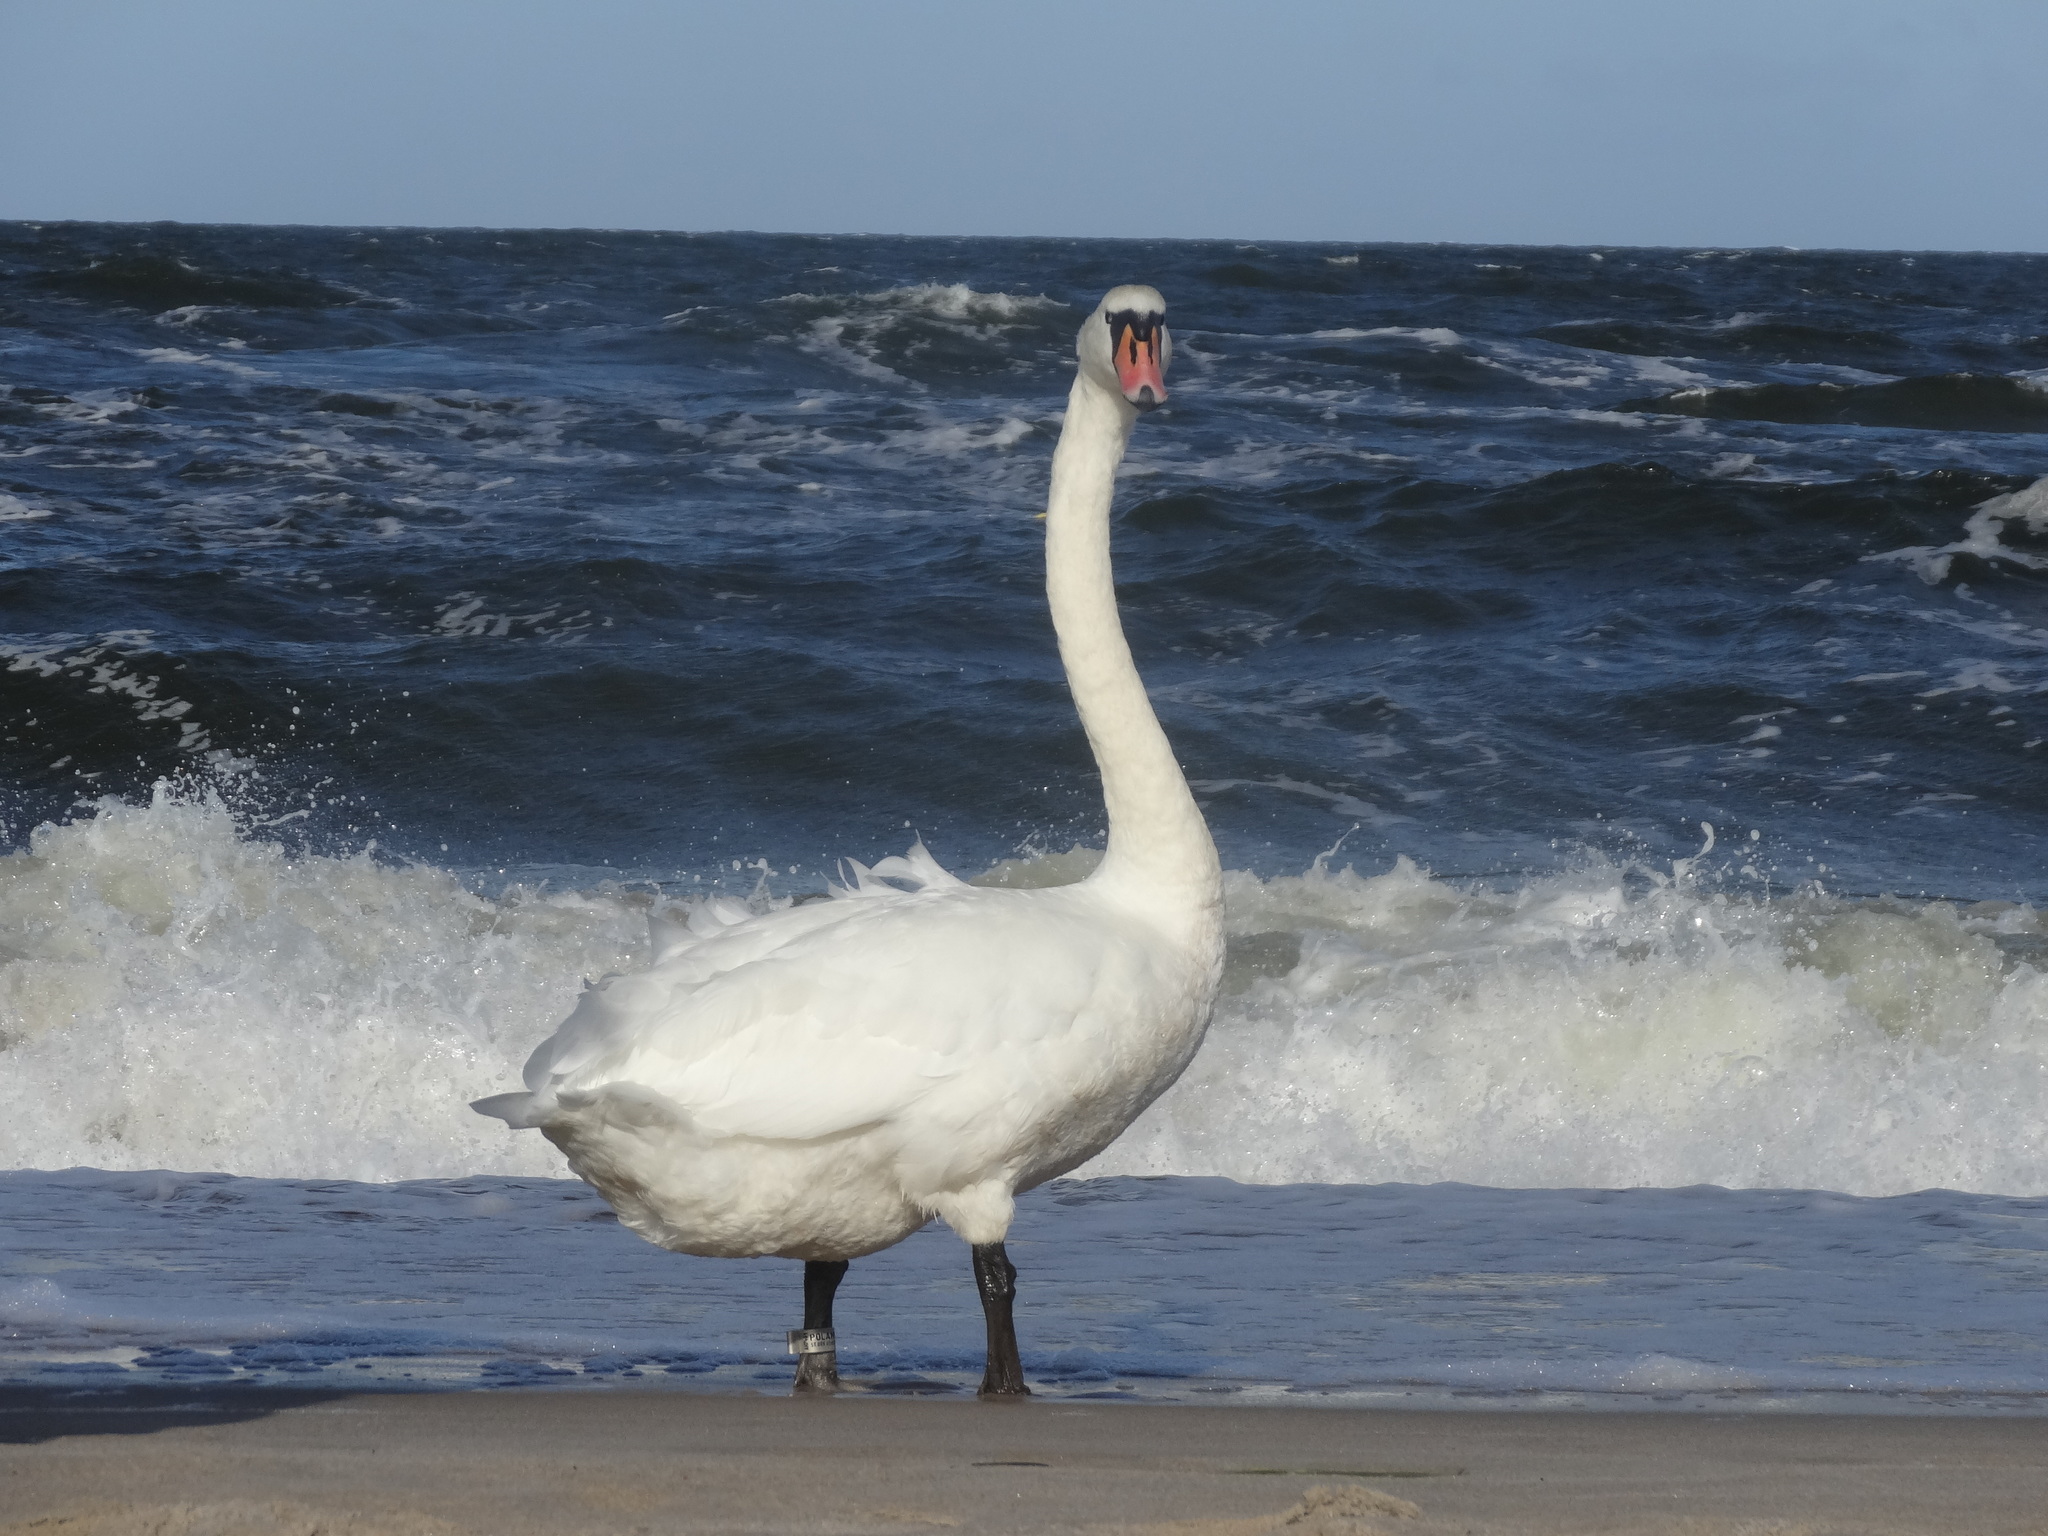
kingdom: Animalia
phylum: Chordata
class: Aves
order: Anseriformes
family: Anatidae
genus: Cygnus
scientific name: Cygnus olor
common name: Mute swan
